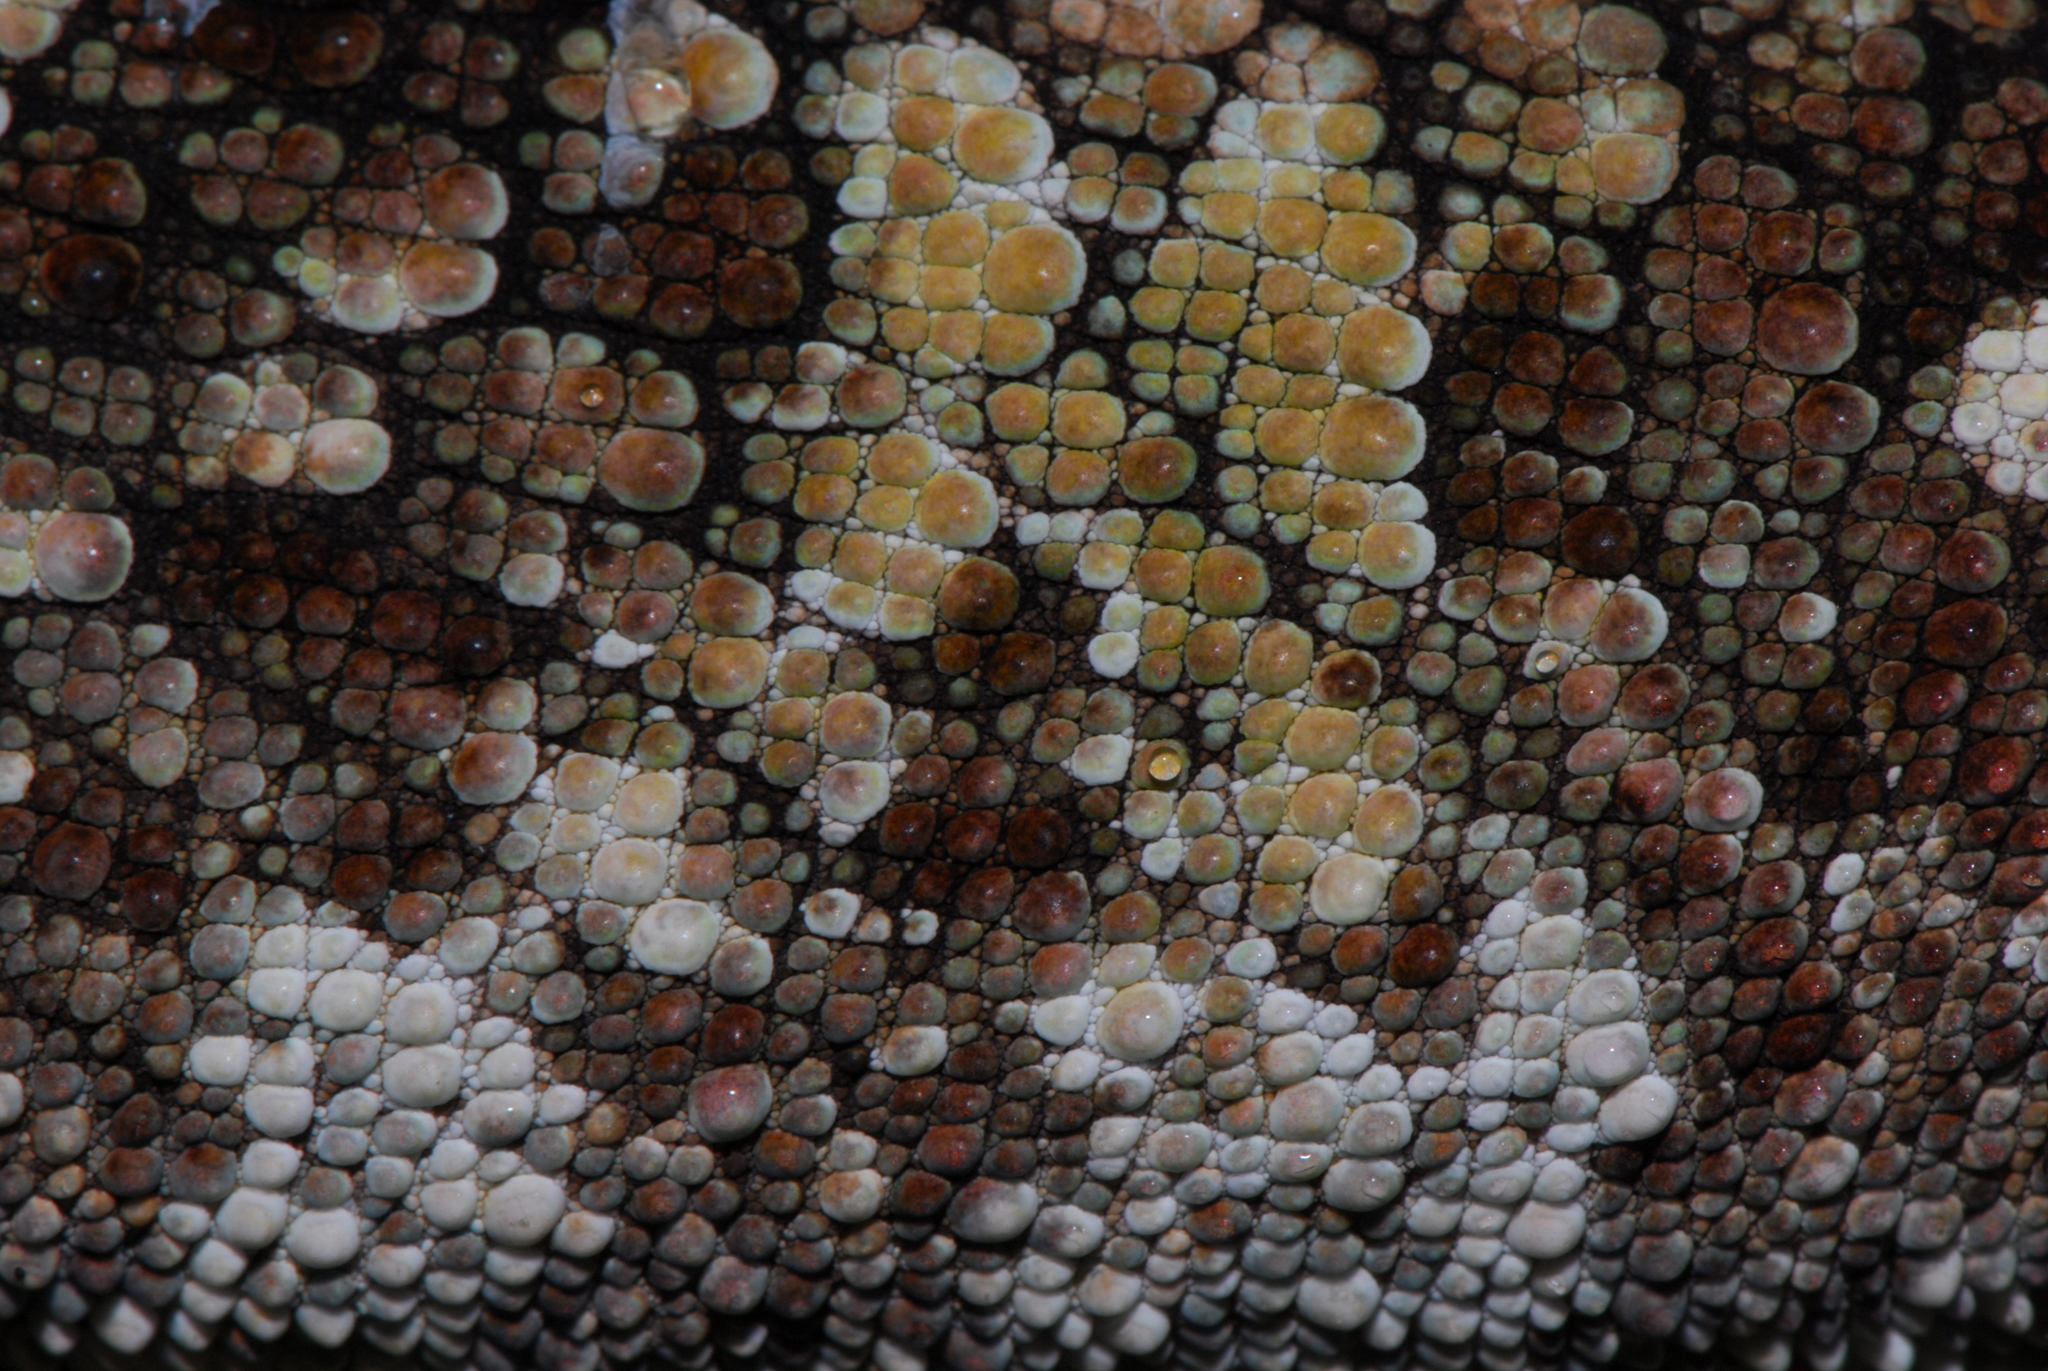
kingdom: Animalia
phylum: Chordata
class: Squamata
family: Chamaeleonidae
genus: Calumma
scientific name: Calumma brevicorne
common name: Short-horned chameleon
